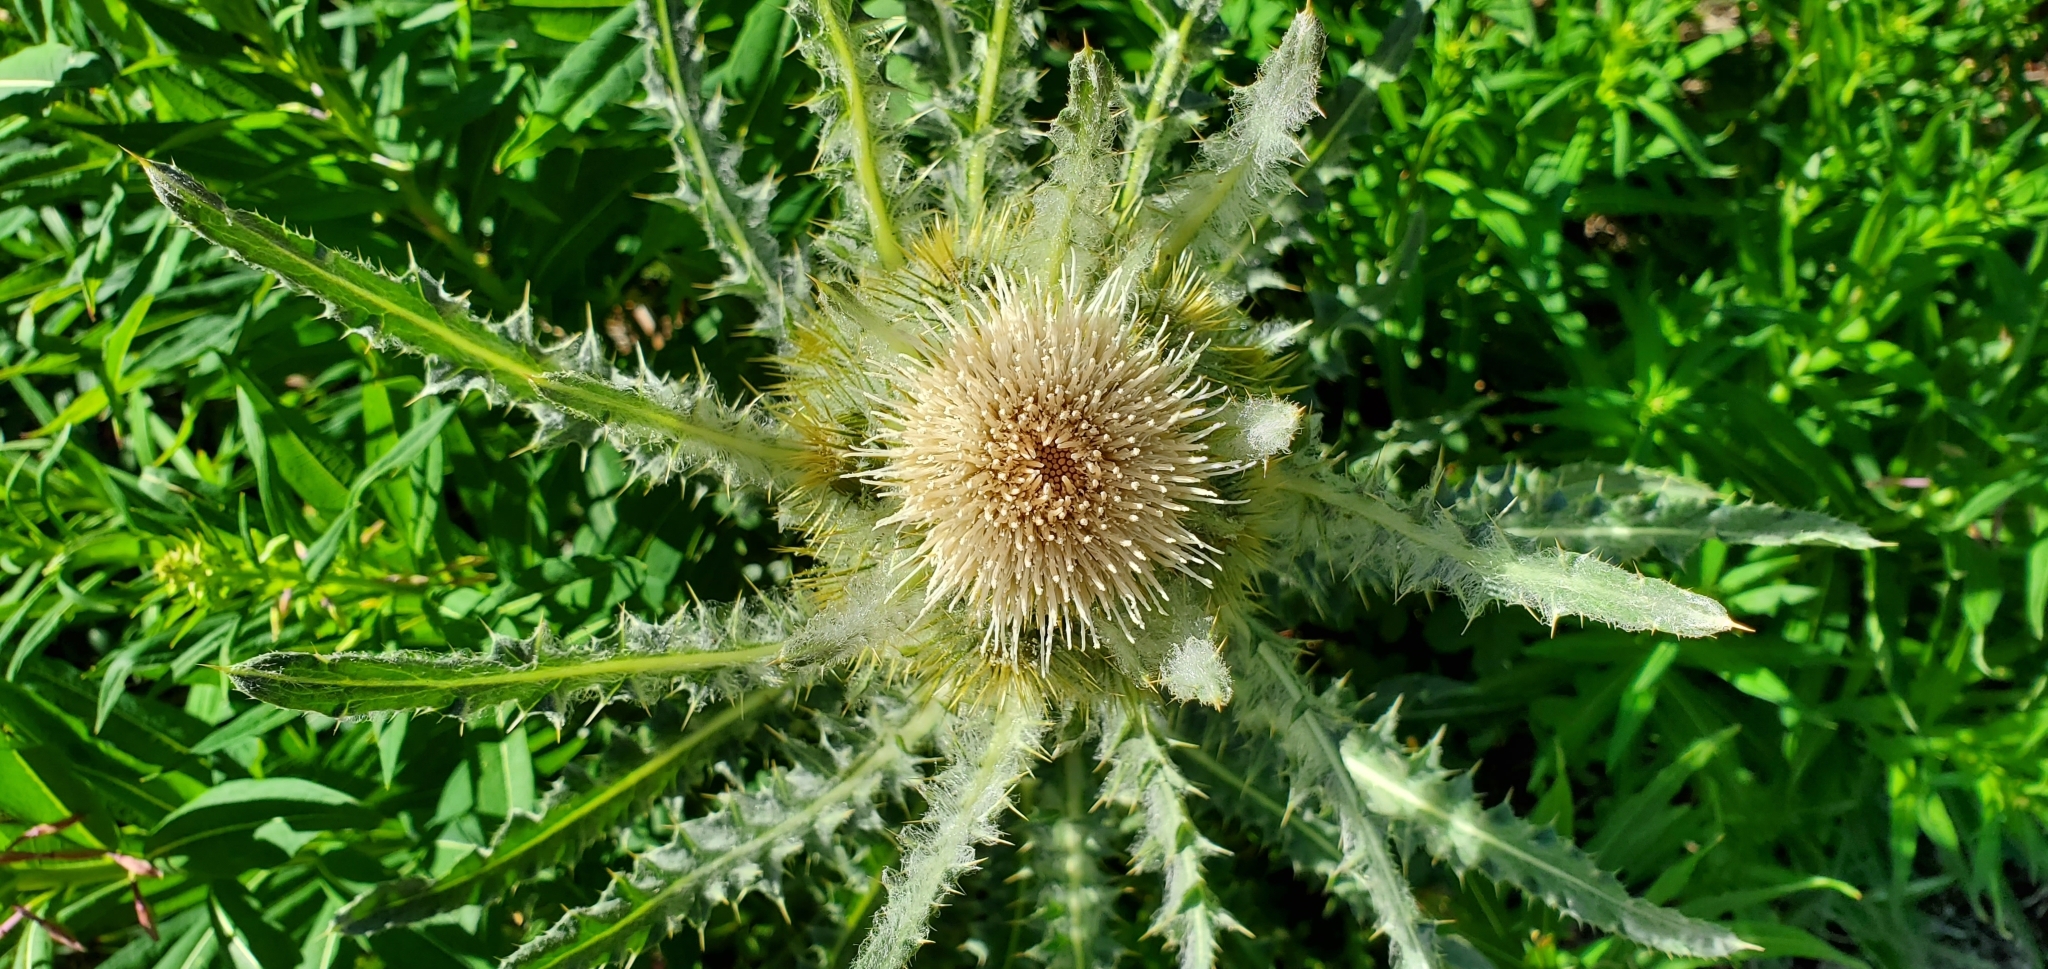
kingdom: Plantae
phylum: Tracheophyta
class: Magnoliopsida
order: Asterales
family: Asteraceae
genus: Cirsium
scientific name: Cirsium hookerianum
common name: Hooker's thistle
